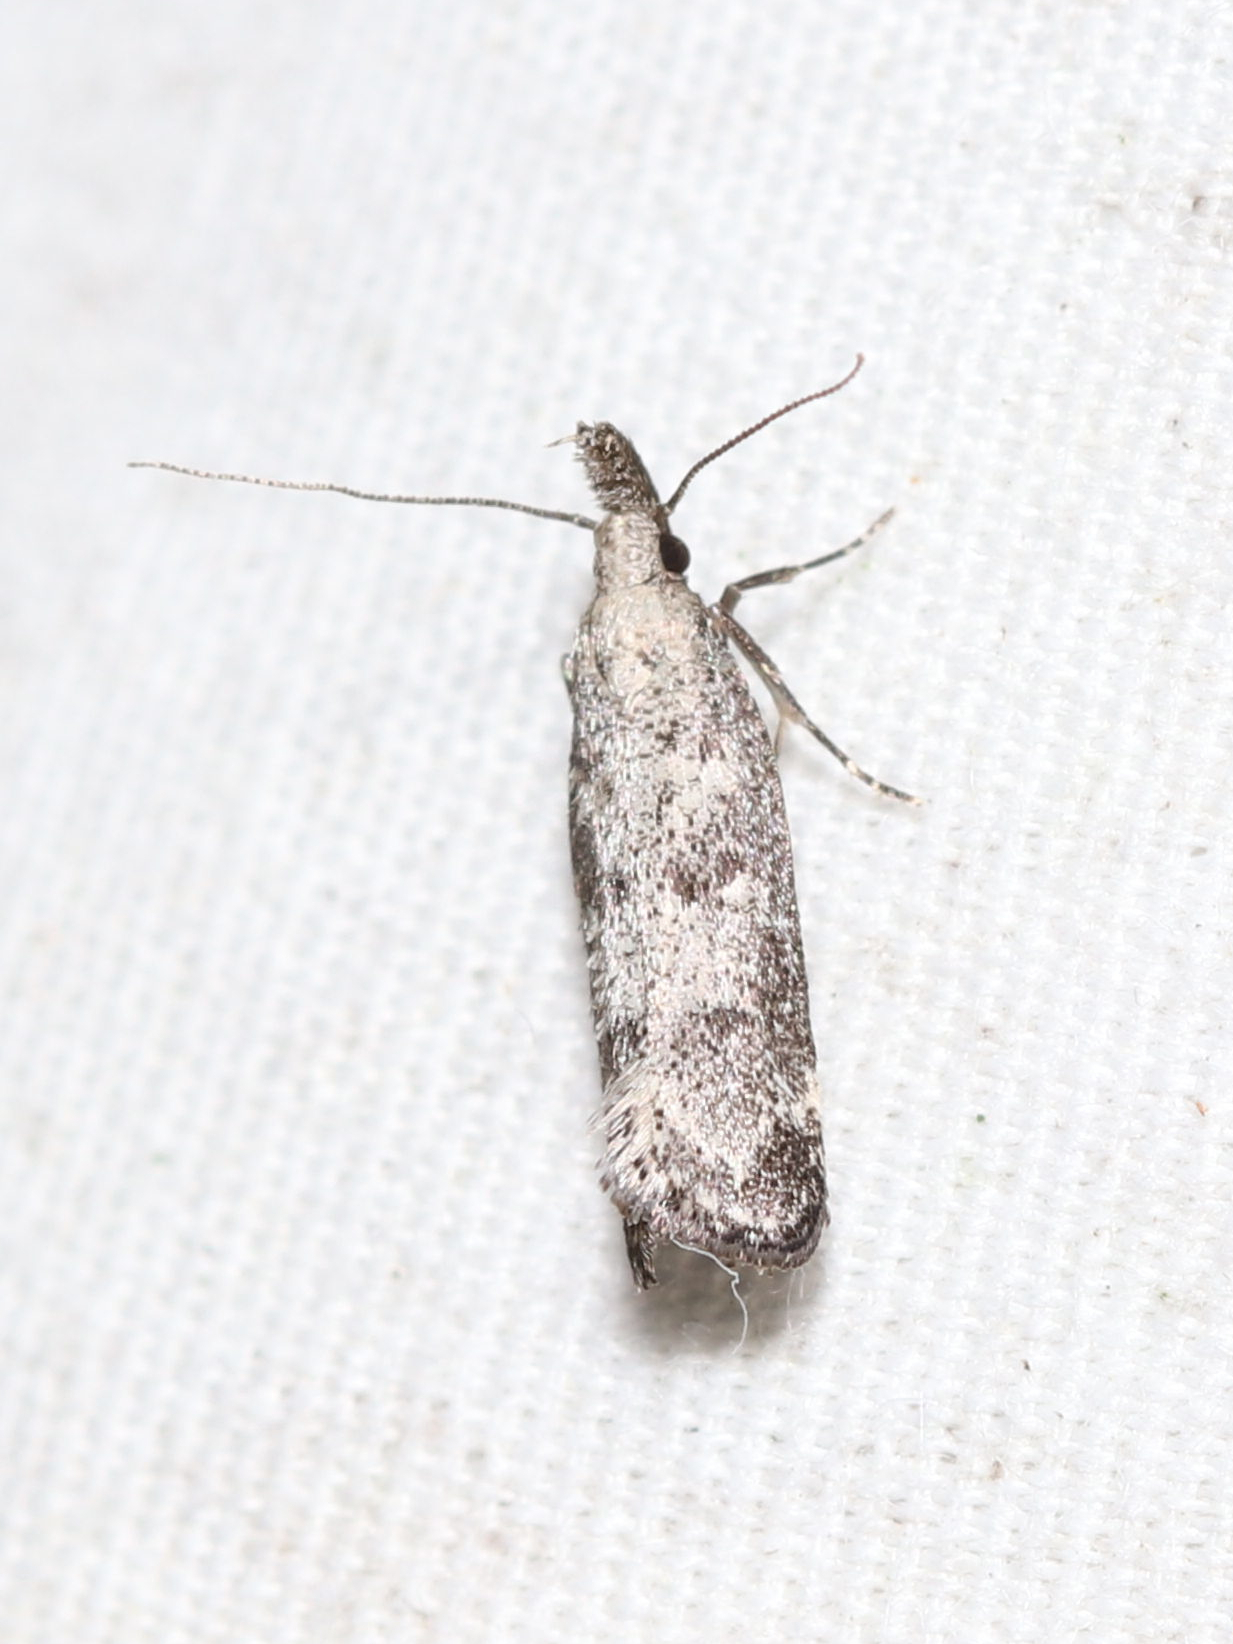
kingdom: Animalia
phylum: Arthropoda
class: Insecta
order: Lepidoptera
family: Gelechiidae
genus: Dichomeris
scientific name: Dichomeris inversella
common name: Inverse dichomeris moth
